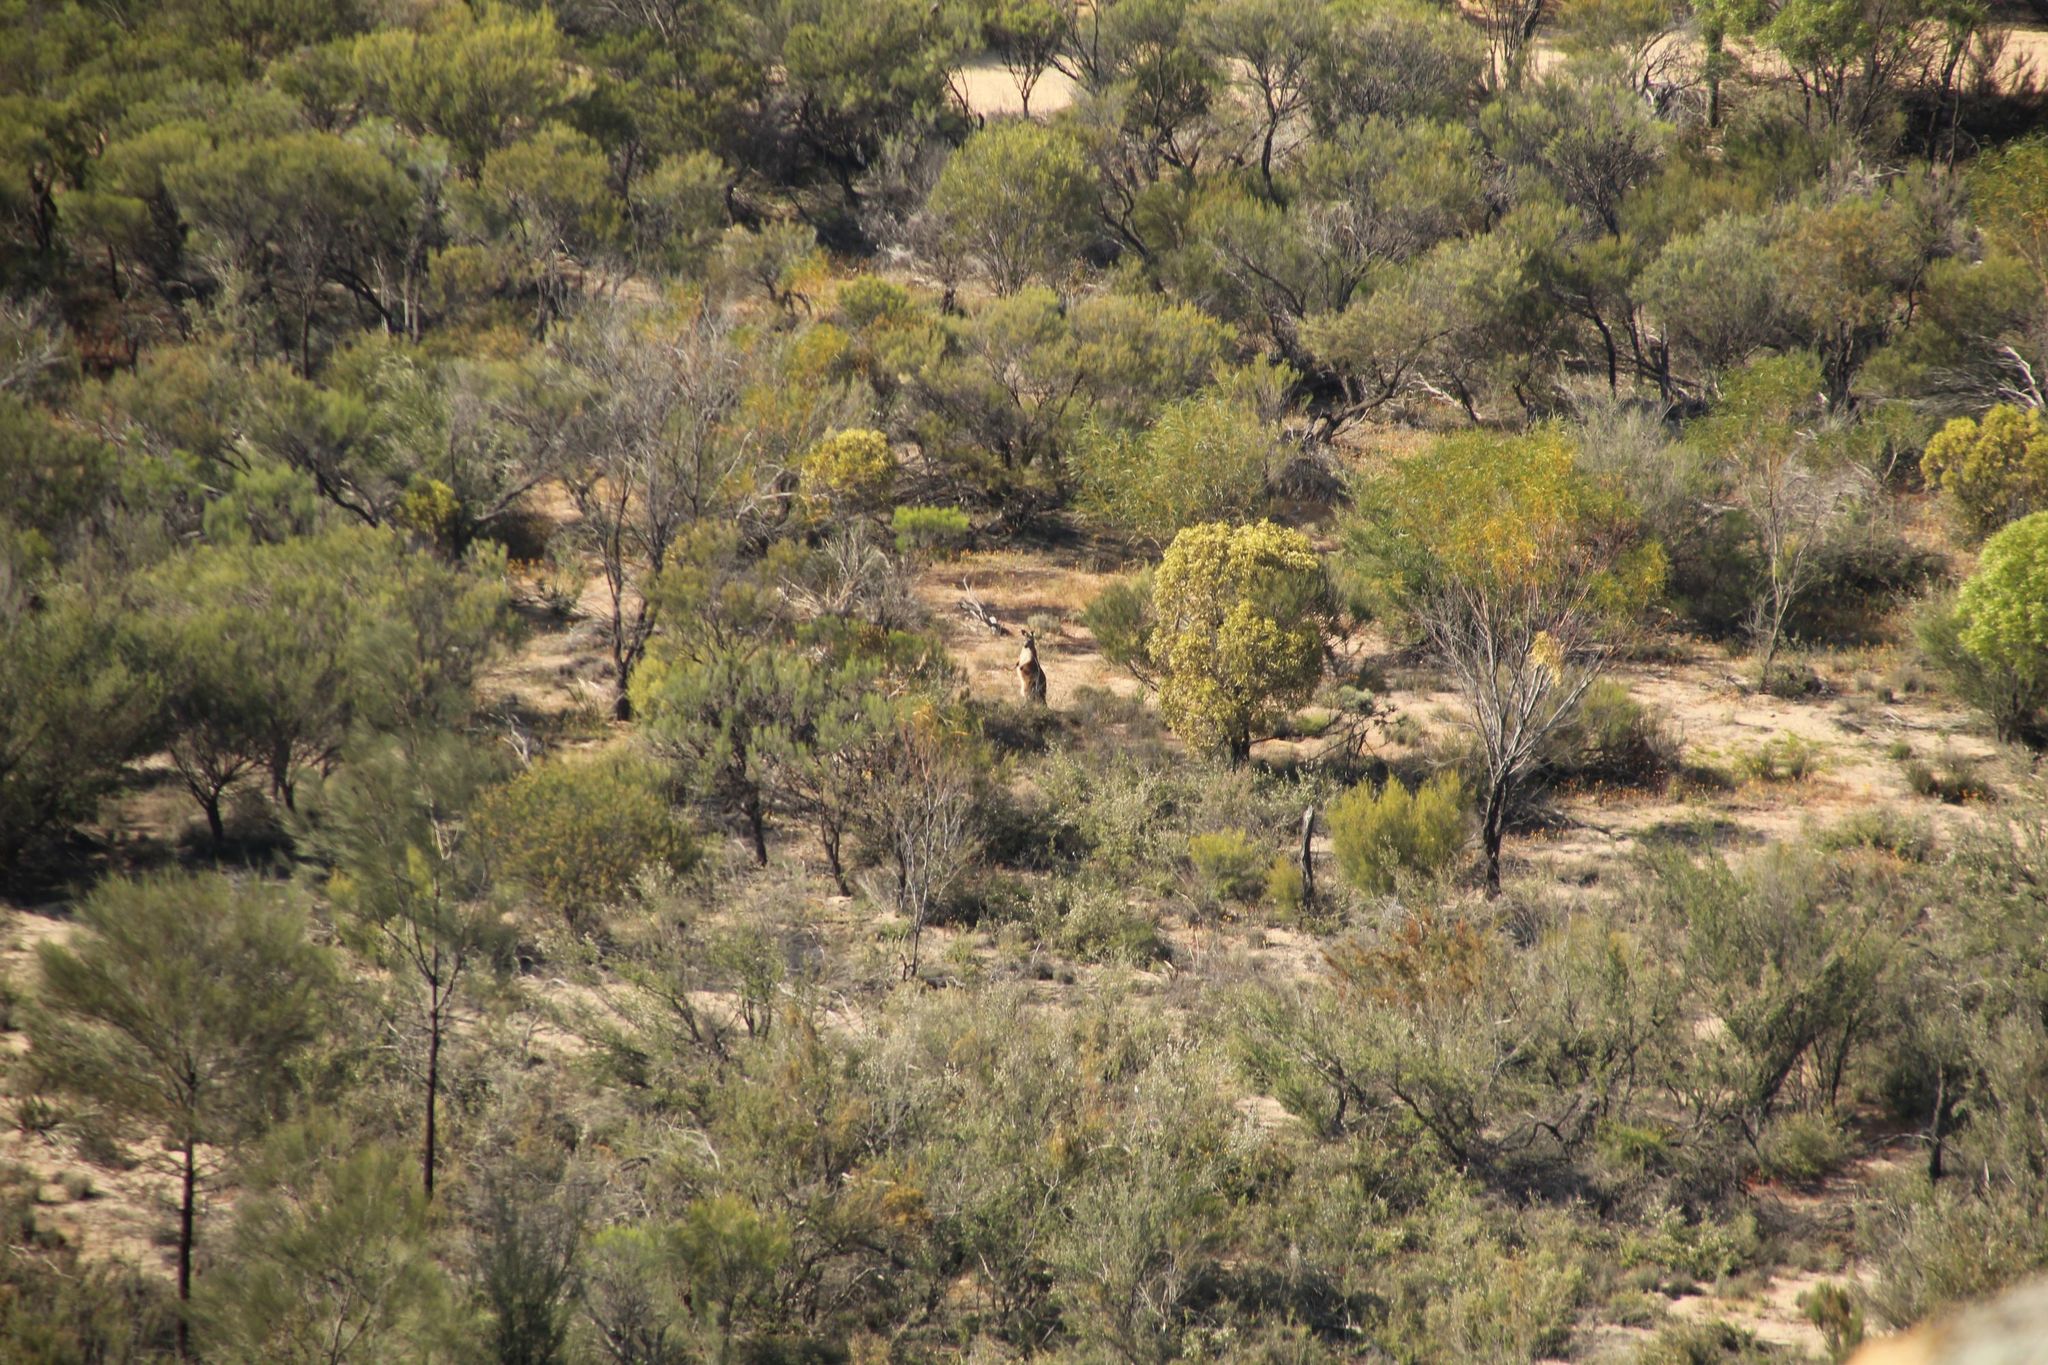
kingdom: Animalia
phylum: Chordata
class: Mammalia
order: Diprotodontia
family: Macropodidae
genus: Macropus
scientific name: Macropus robustus
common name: Eastern wallaroo
